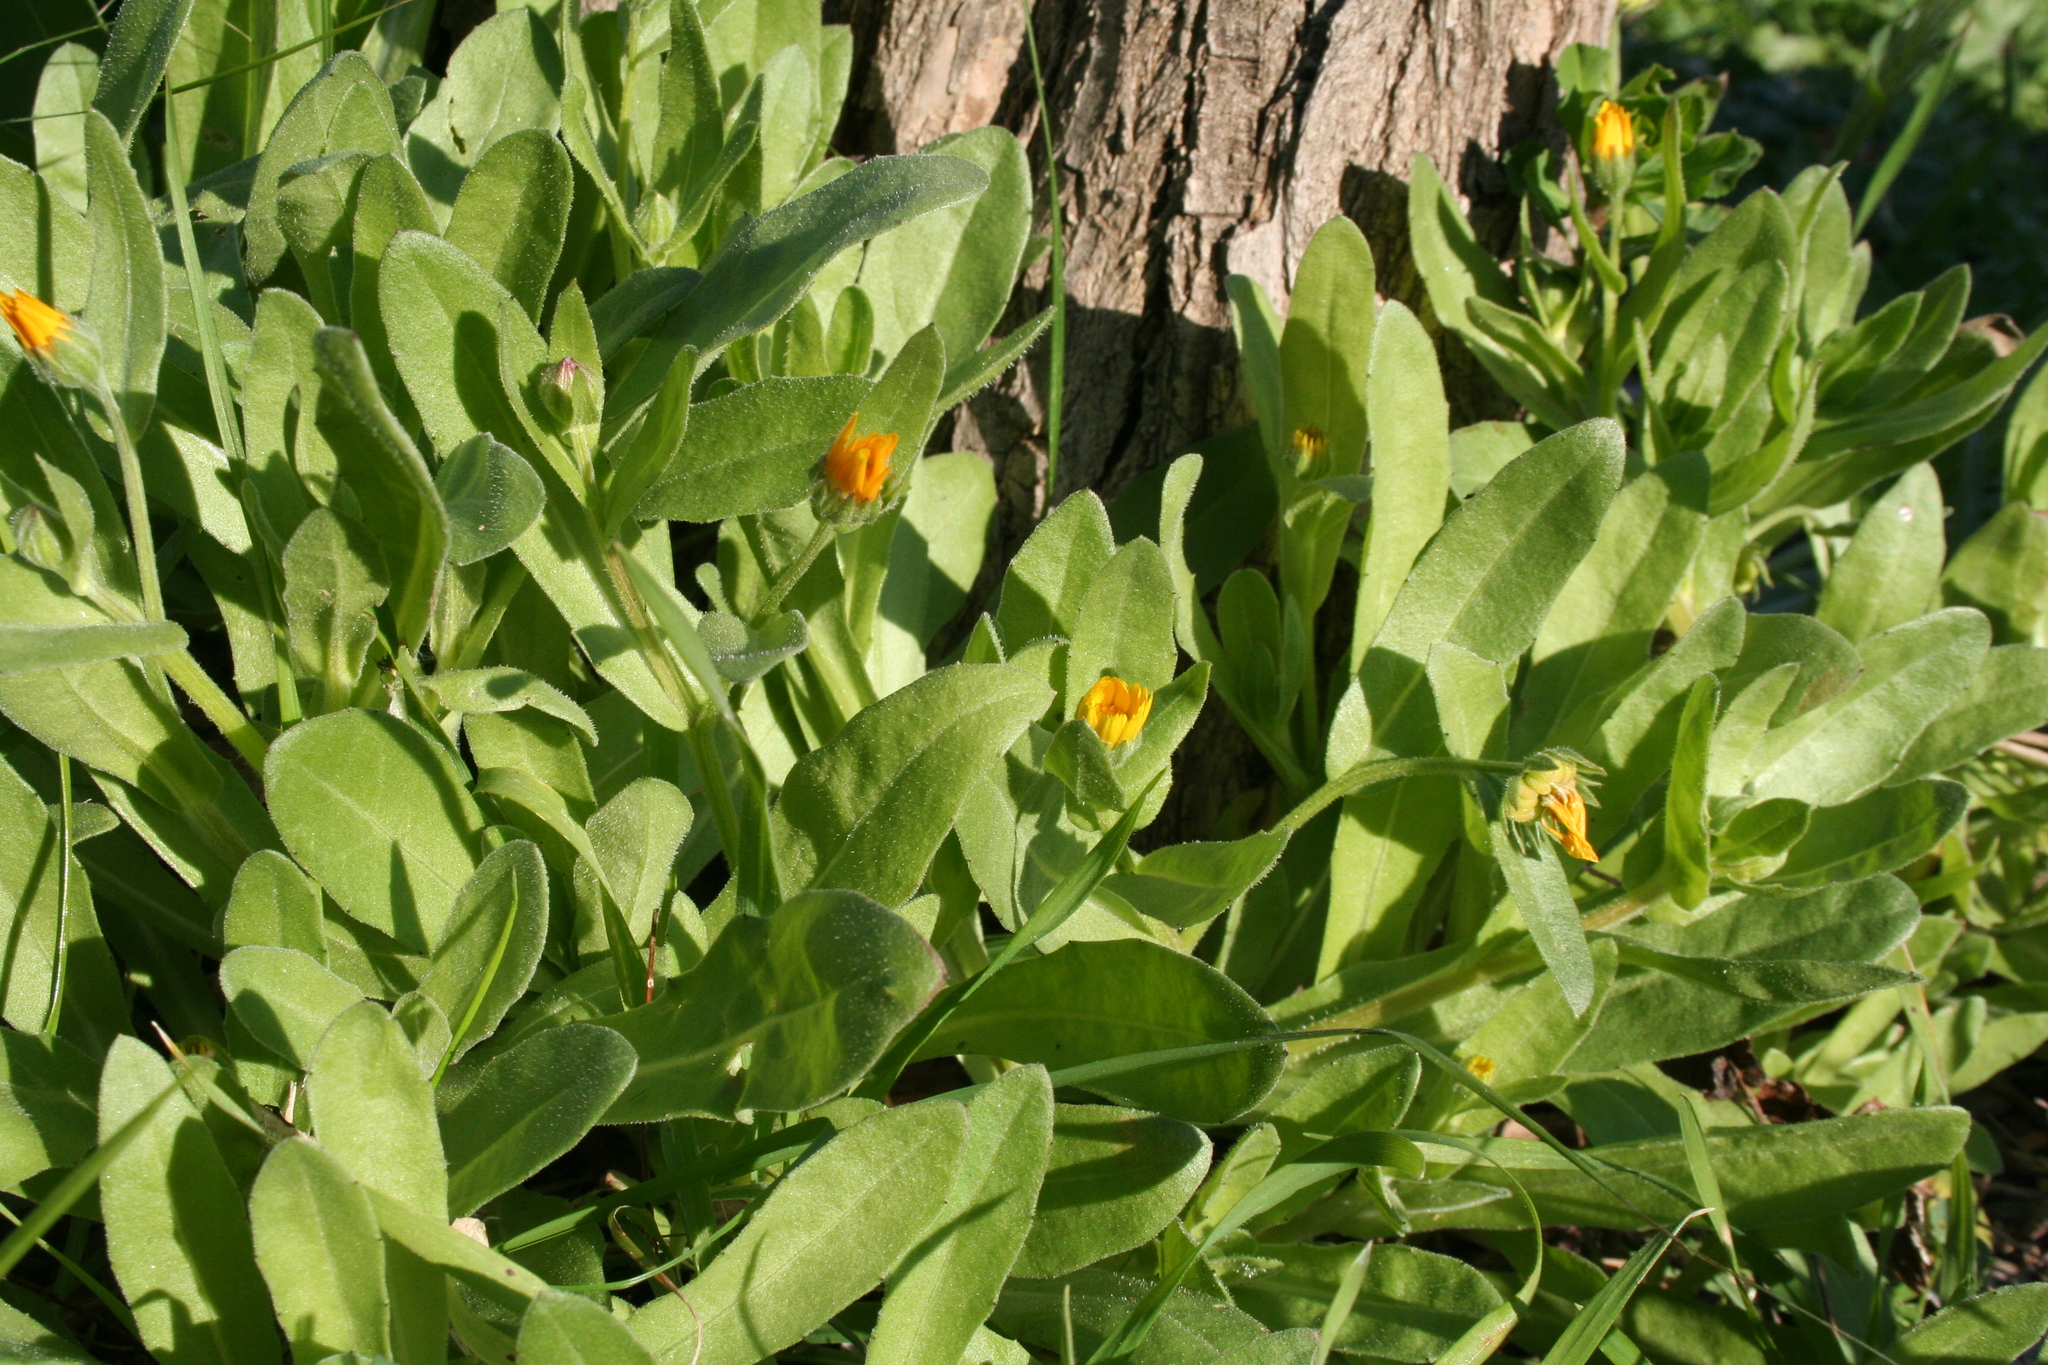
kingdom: Plantae
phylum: Tracheophyta
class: Magnoliopsida
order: Asterales
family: Asteraceae
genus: Calendula
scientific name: Calendula arvensis
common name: Field marigold
